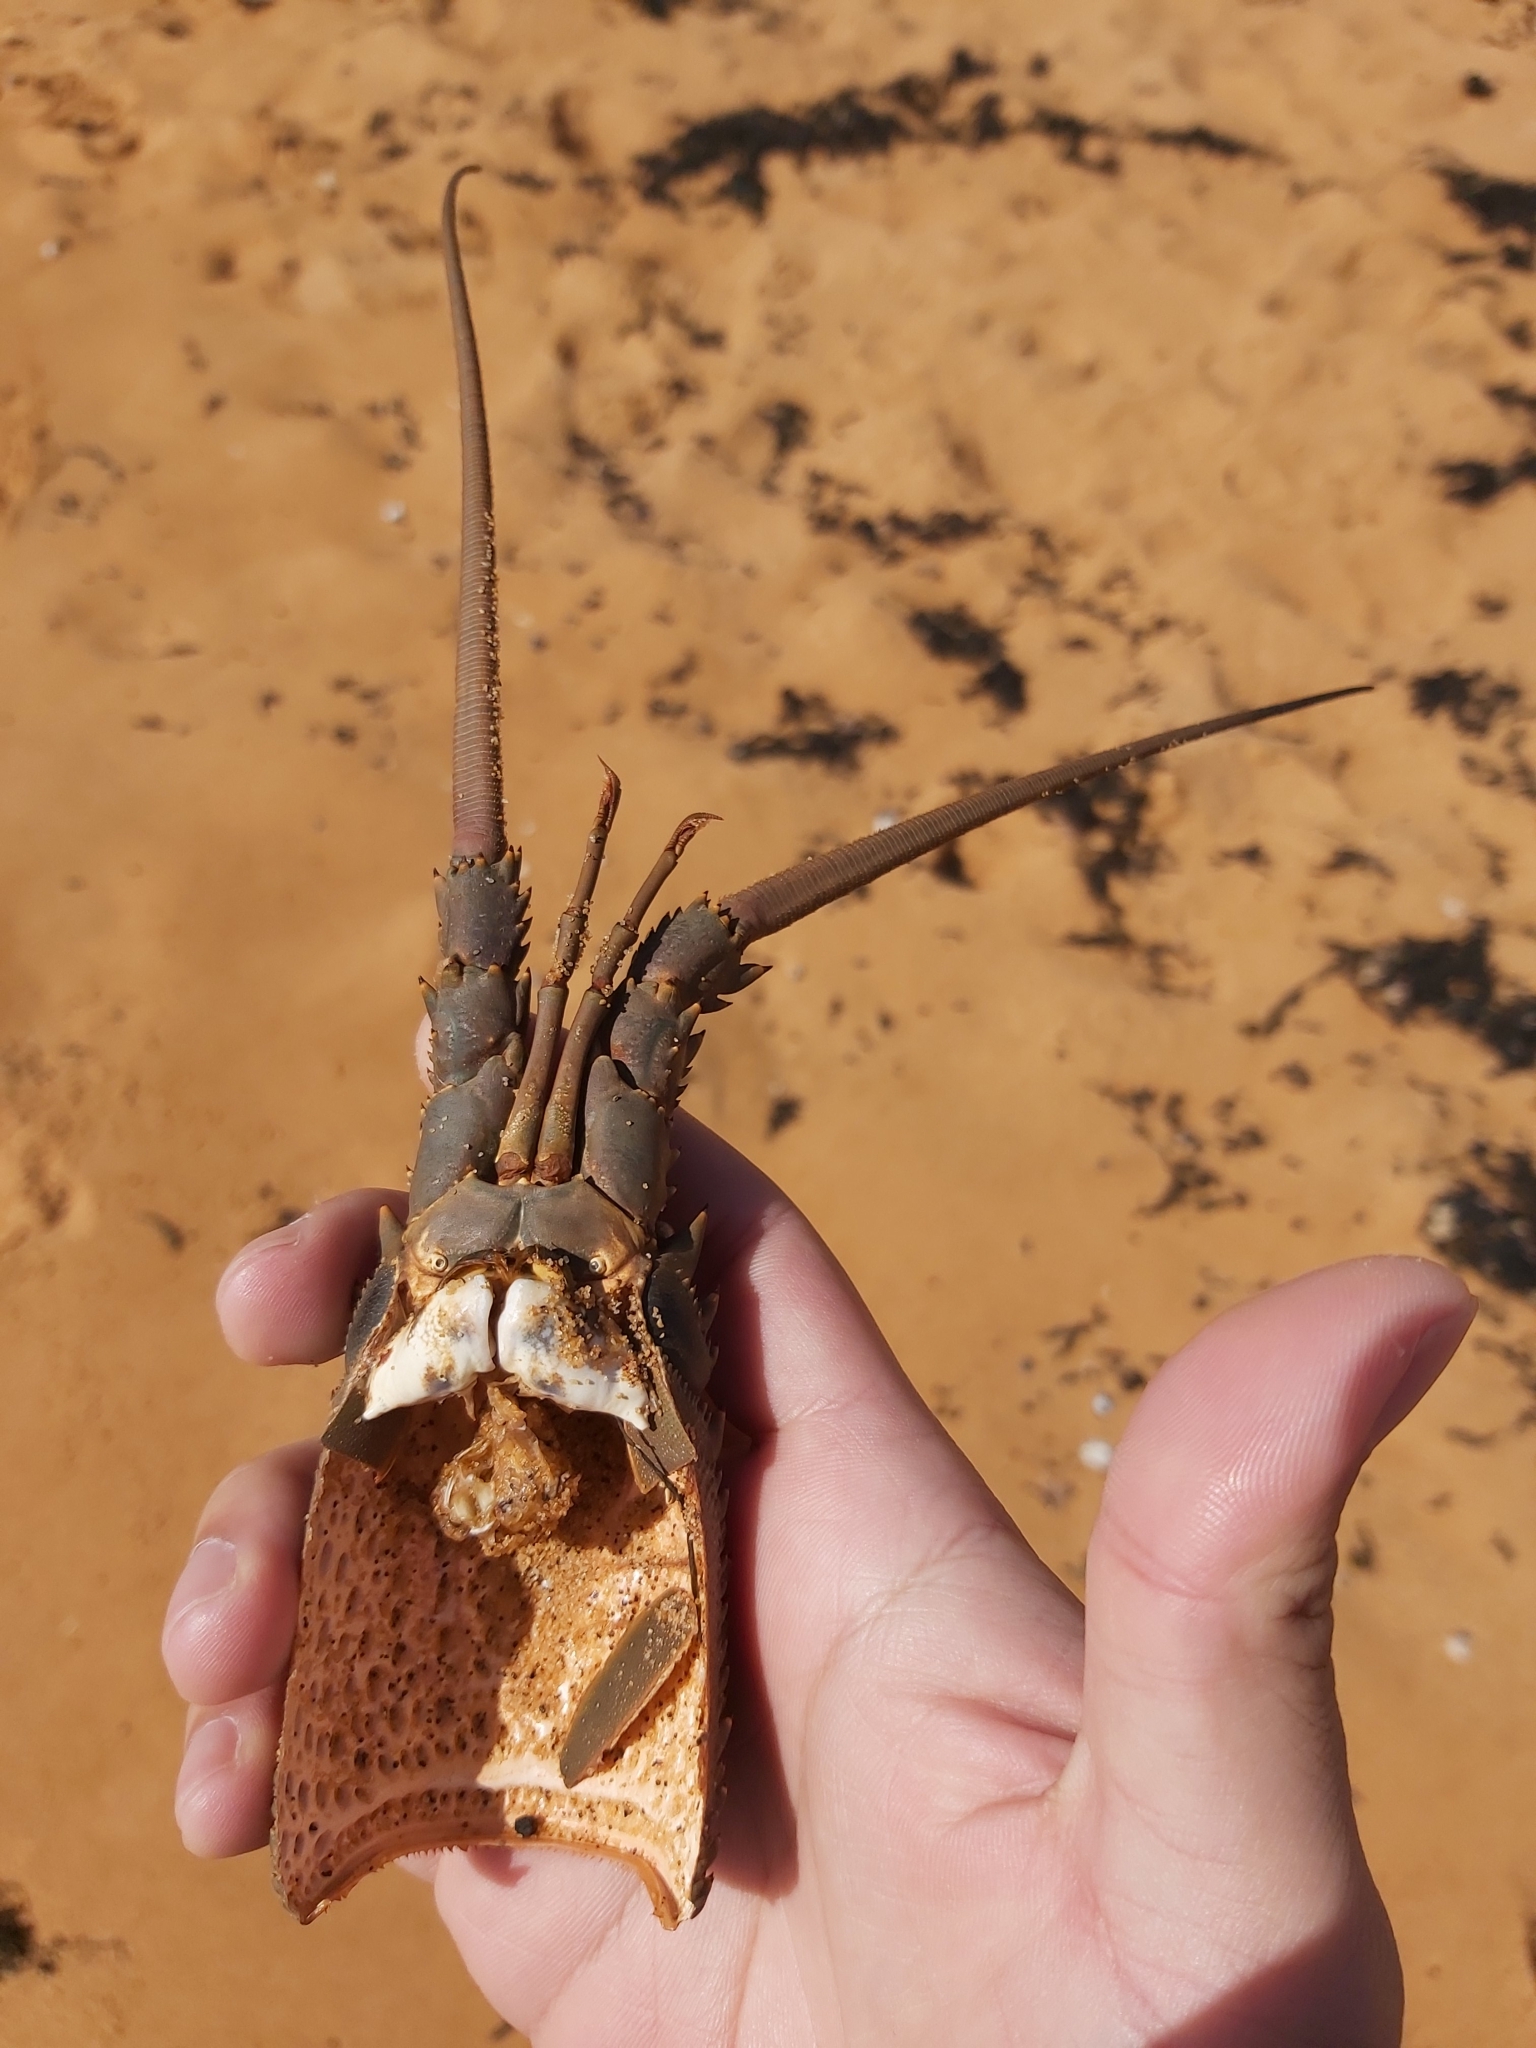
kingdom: Animalia
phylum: Arthropoda
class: Malacostraca
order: Decapoda
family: Palinuridae
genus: Sagmariasus
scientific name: Sagmariasus verreauxi
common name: Green rock lobster
